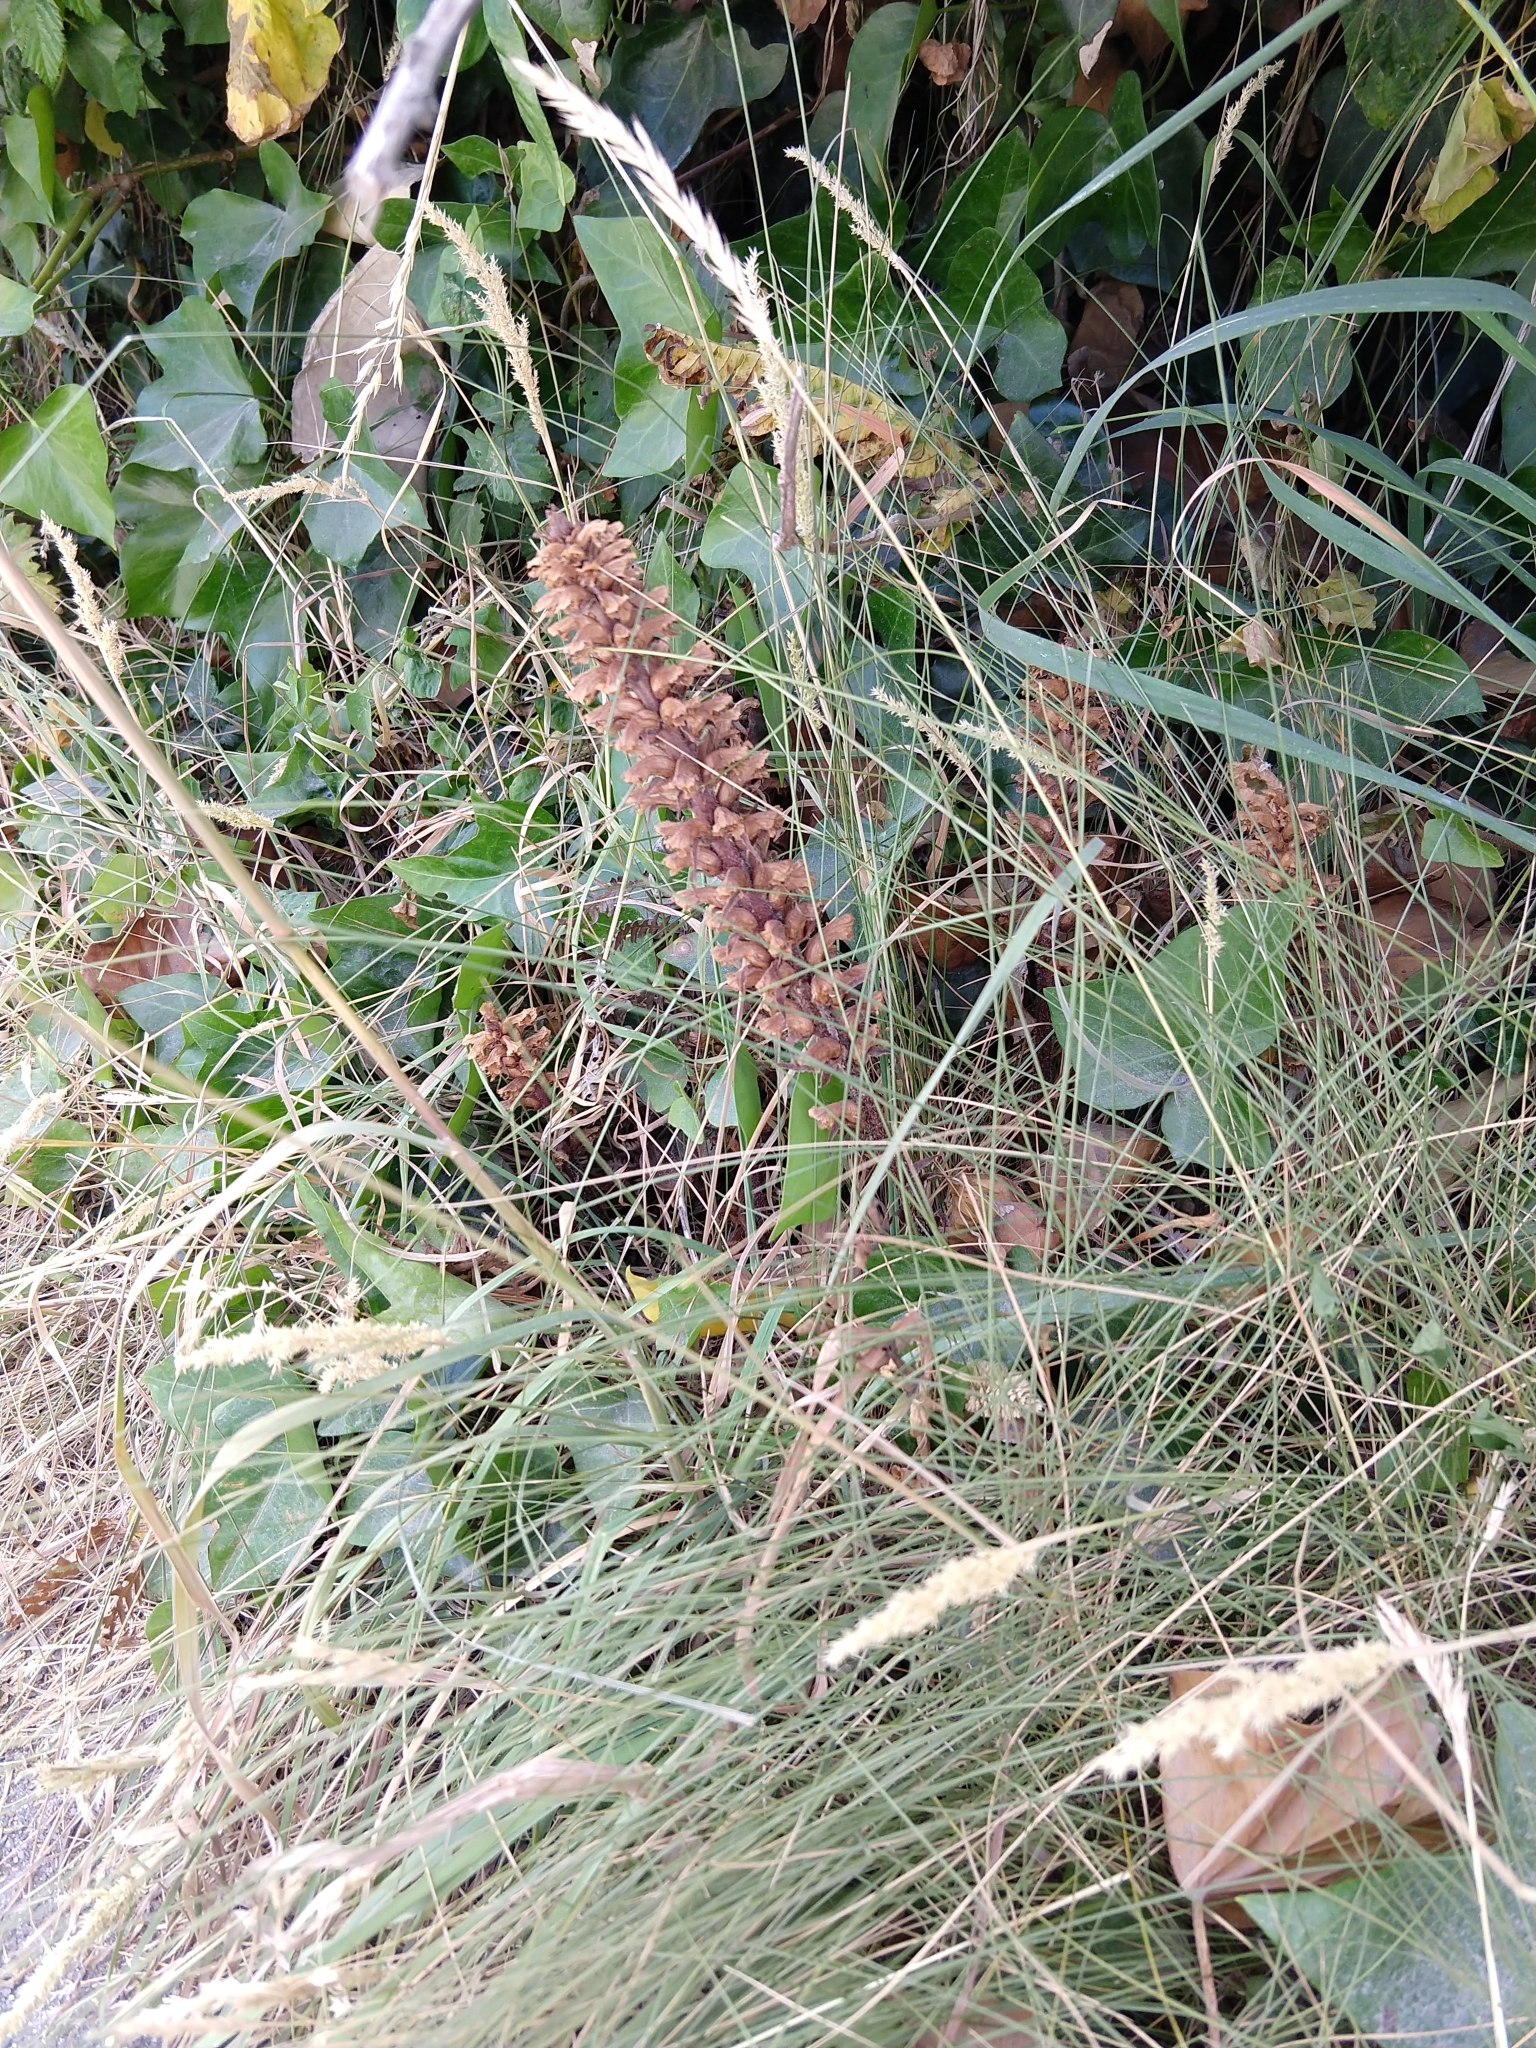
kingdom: Plantae
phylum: Tracheophyta
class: Magnoliopsida
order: Lamiales
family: Orobanchaceae
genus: Orobanche
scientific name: Orobanche hederae
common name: Ivy broomrape
